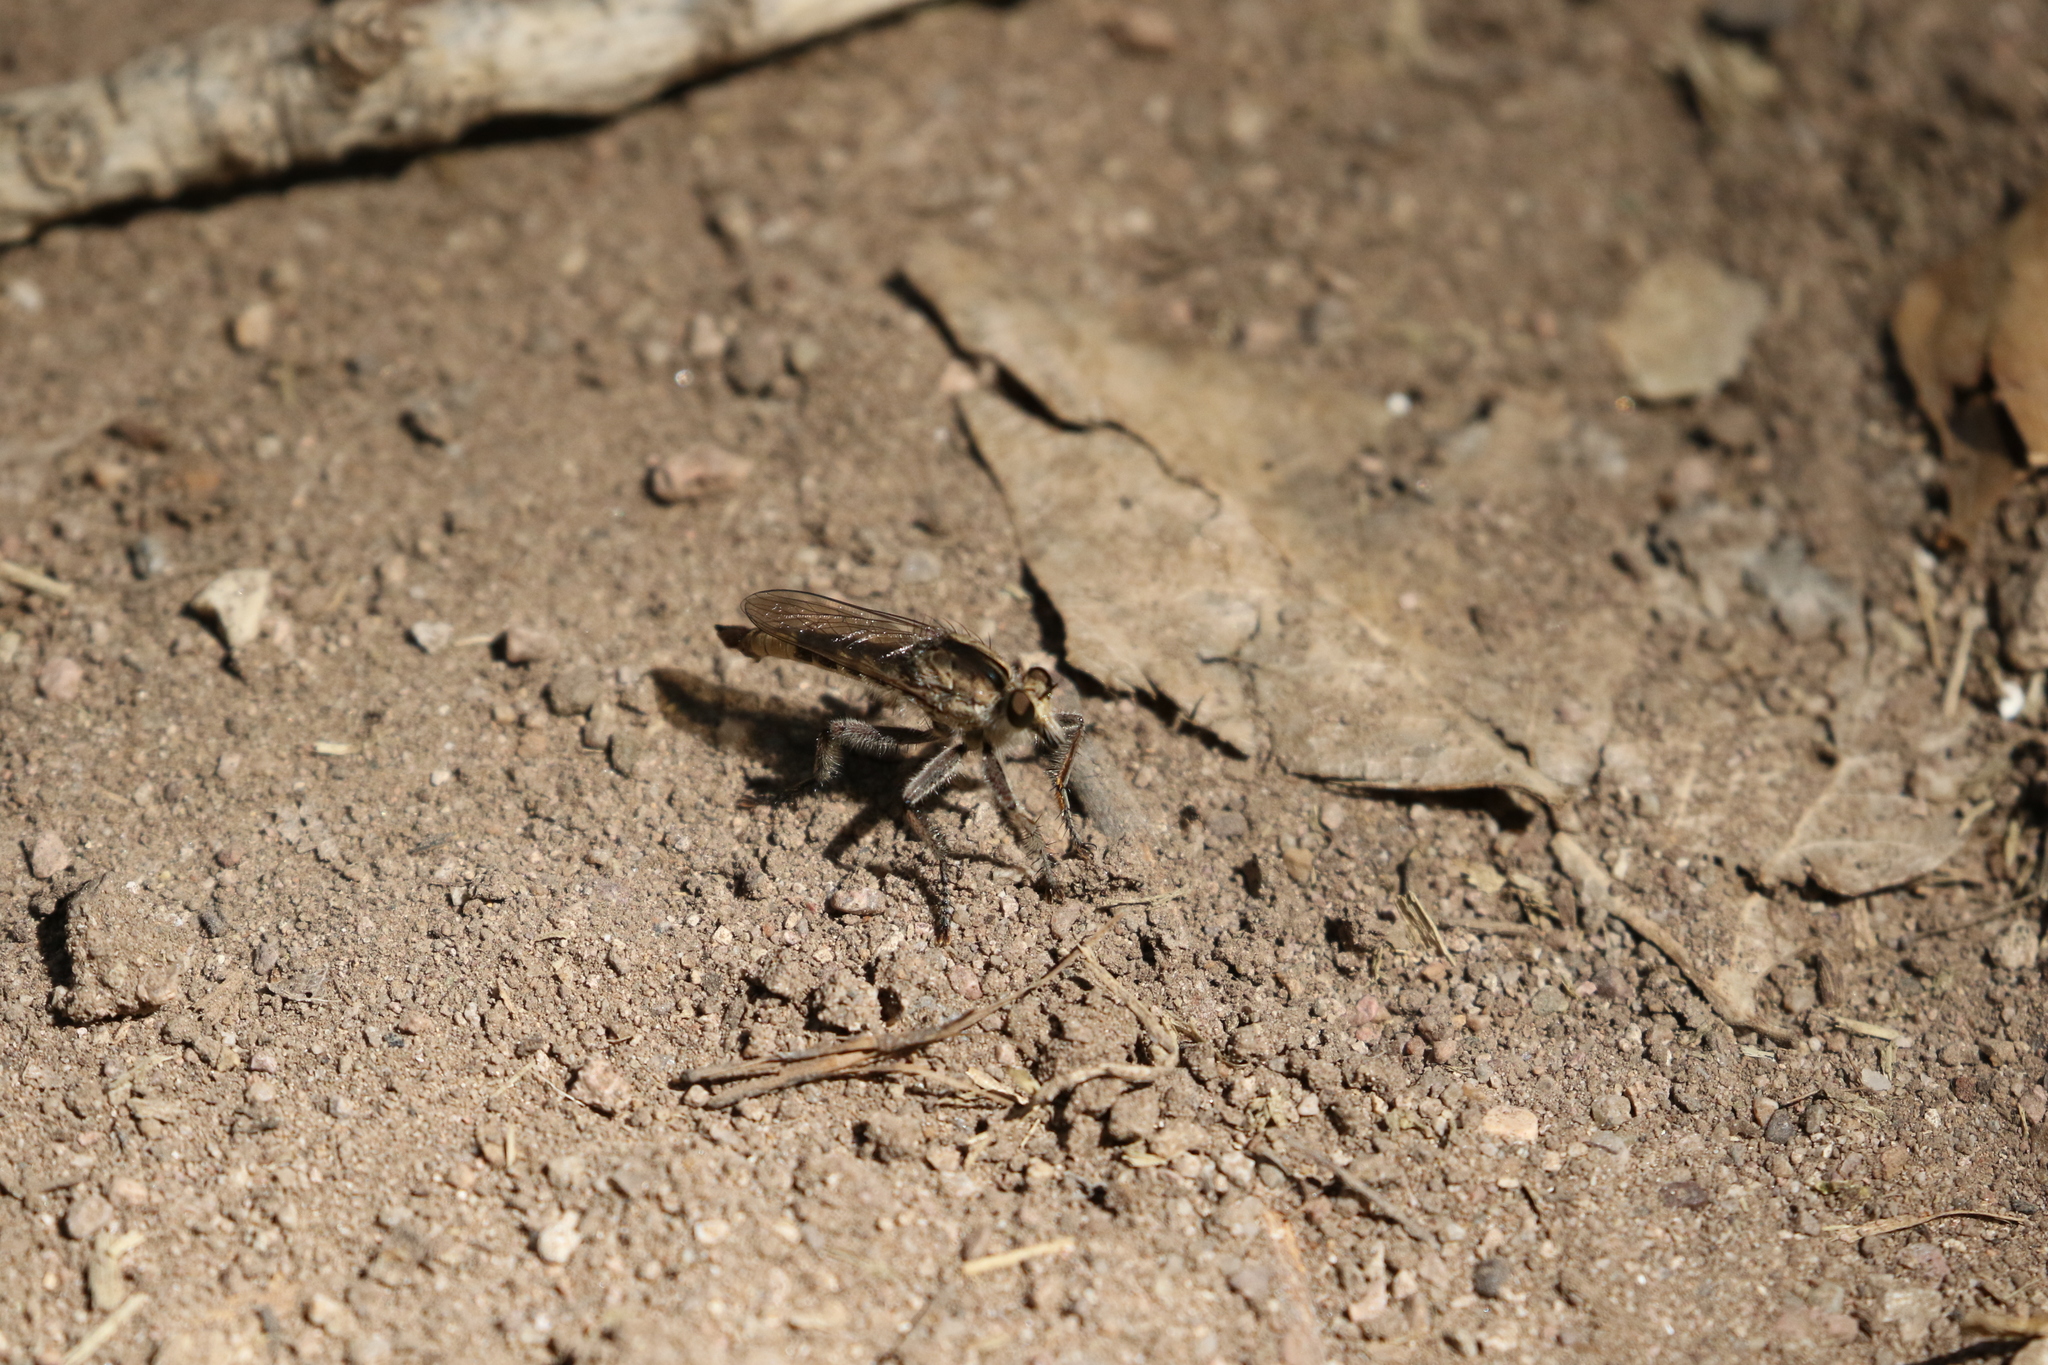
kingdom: Animalia
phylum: Arthropoda
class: Insecta
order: Diptera
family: Asilidae
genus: Triorla
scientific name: Triorla interrupta
